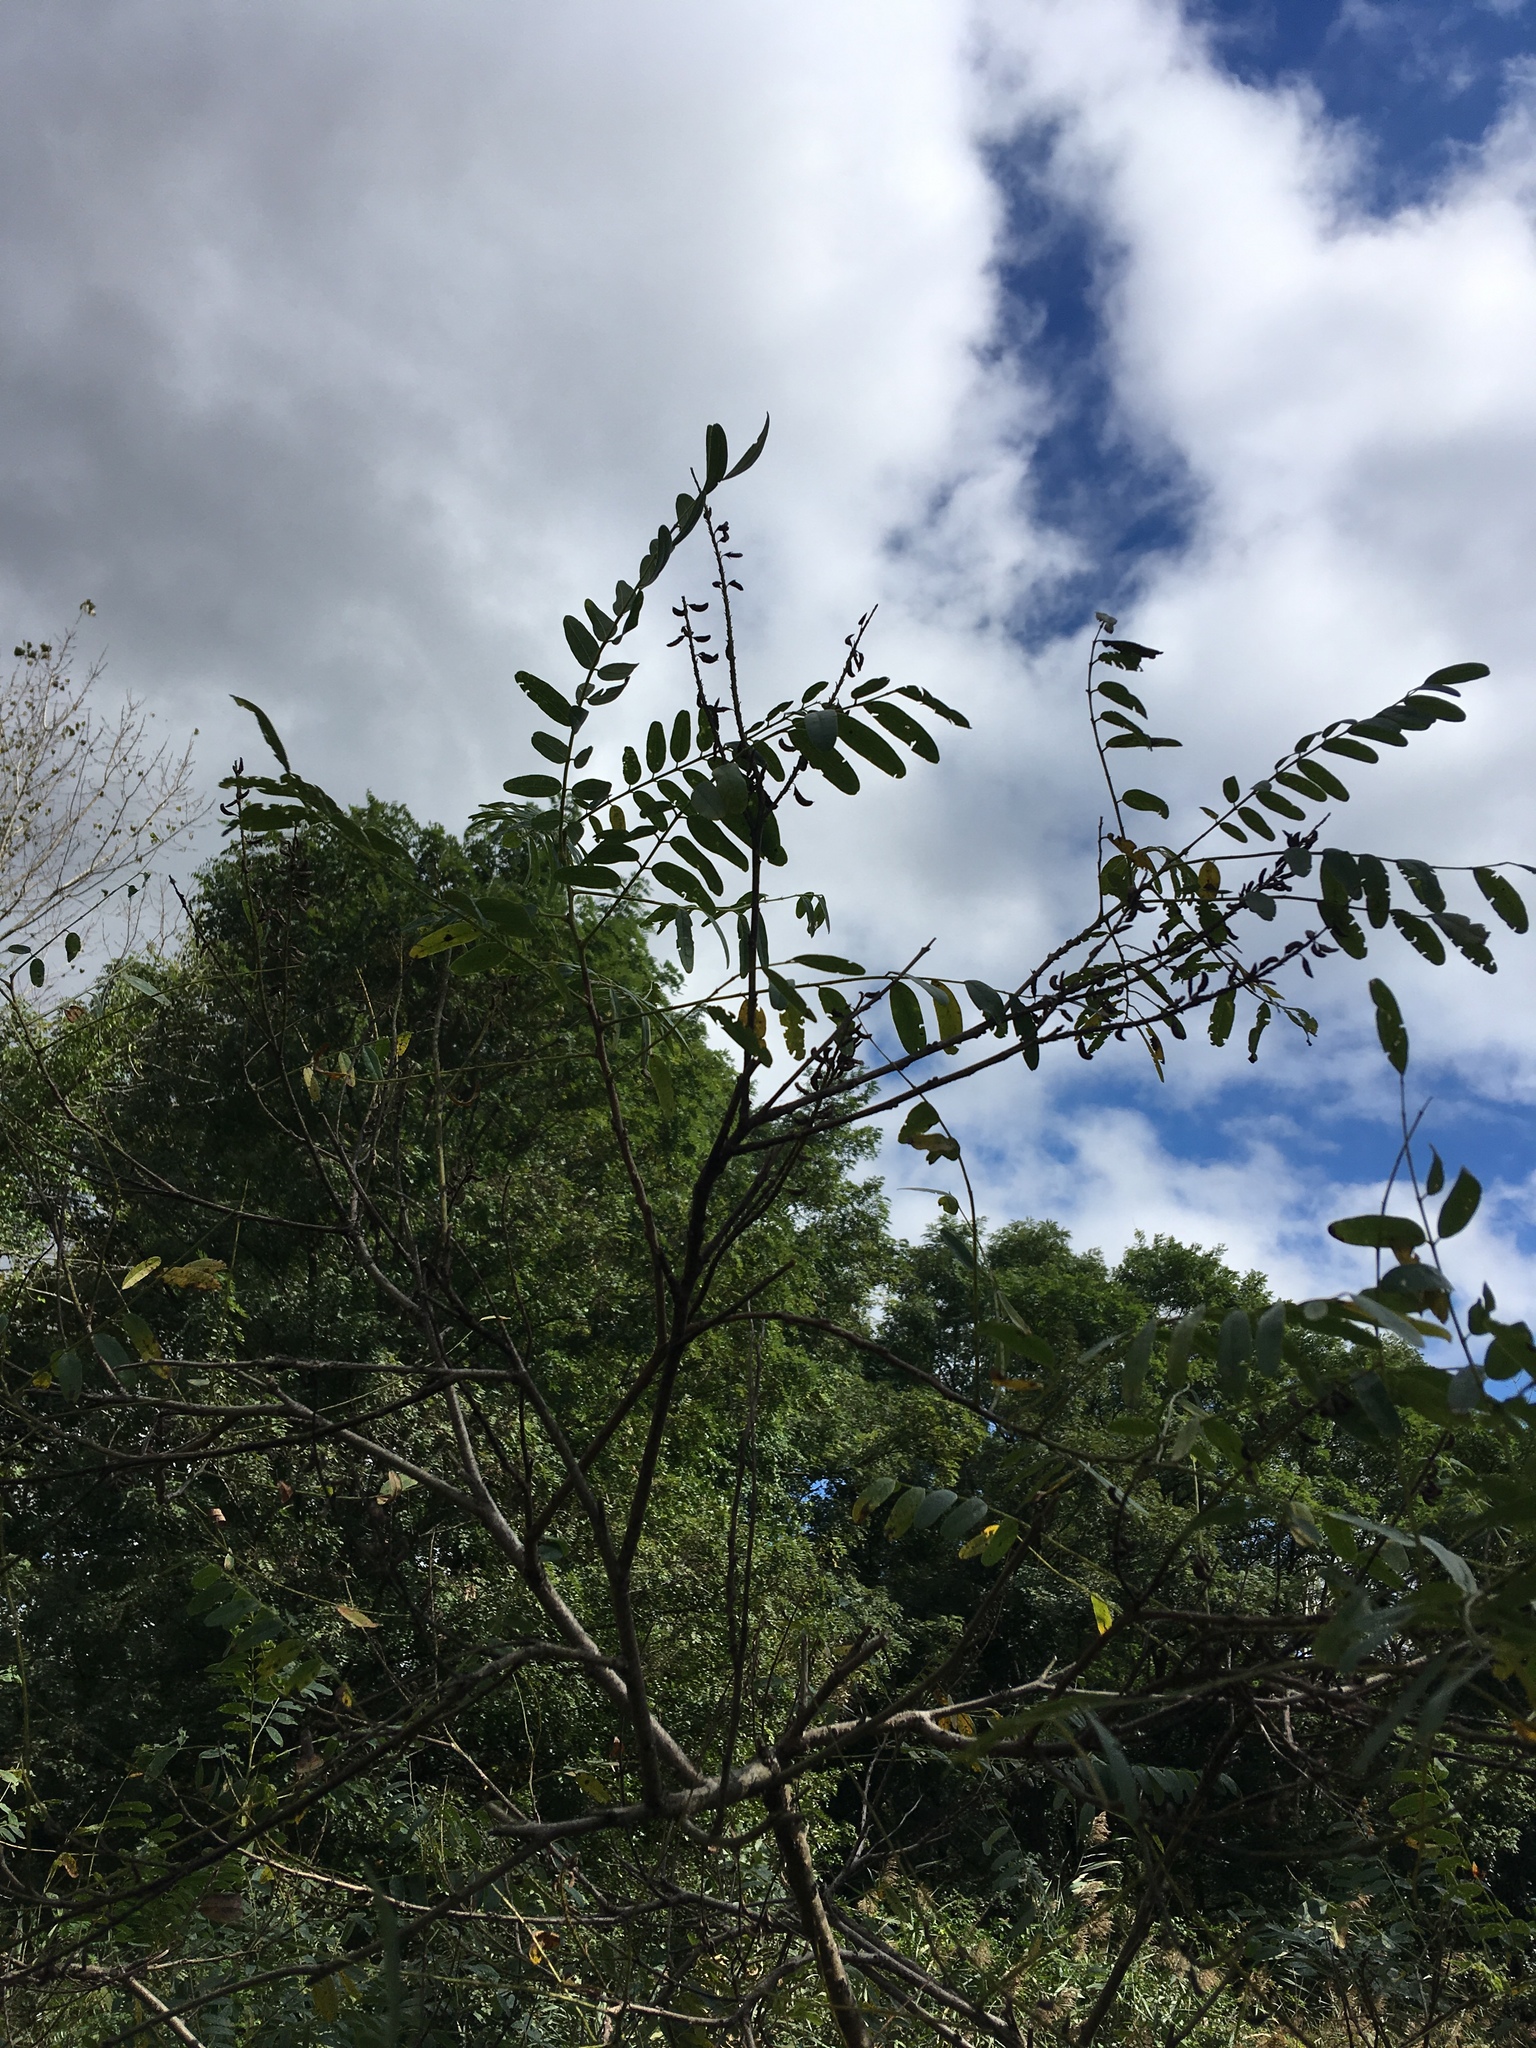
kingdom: Plantae
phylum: Tracheophyta
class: Magnoliopsida
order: Fabales
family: Fabaceae
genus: Amorpha
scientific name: Amorpha fruticosa
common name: False indigo
